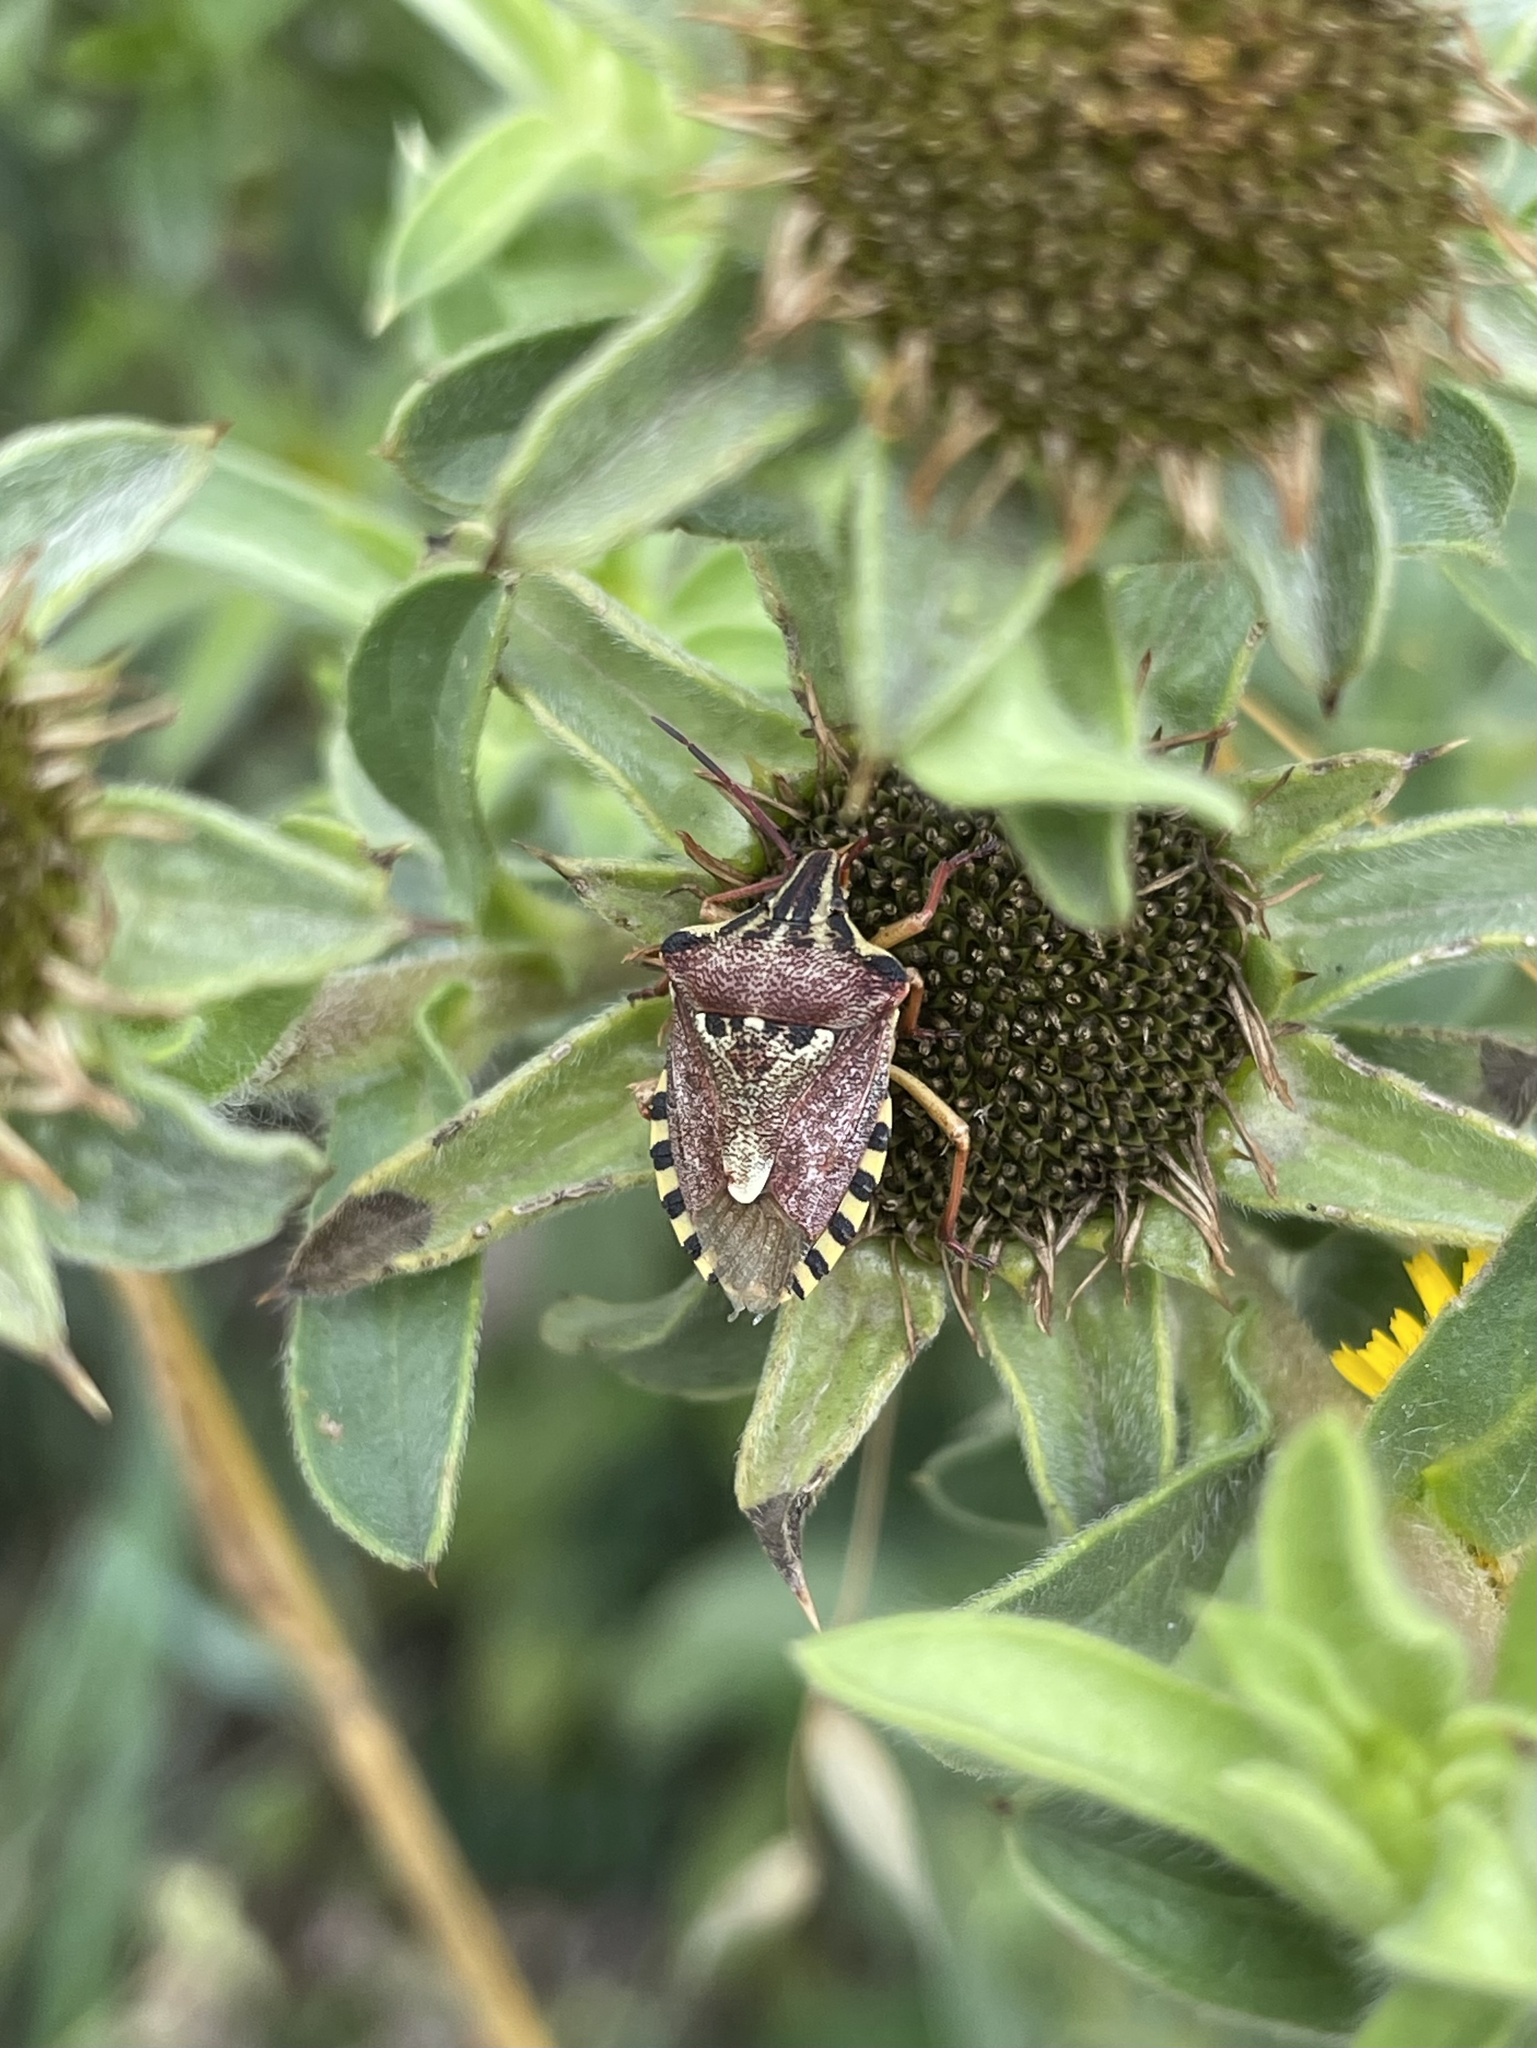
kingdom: Animalia
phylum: Arthropoda
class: Insecta
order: Hemiptera
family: Miridae
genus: Orthops
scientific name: Orthops kalmii
